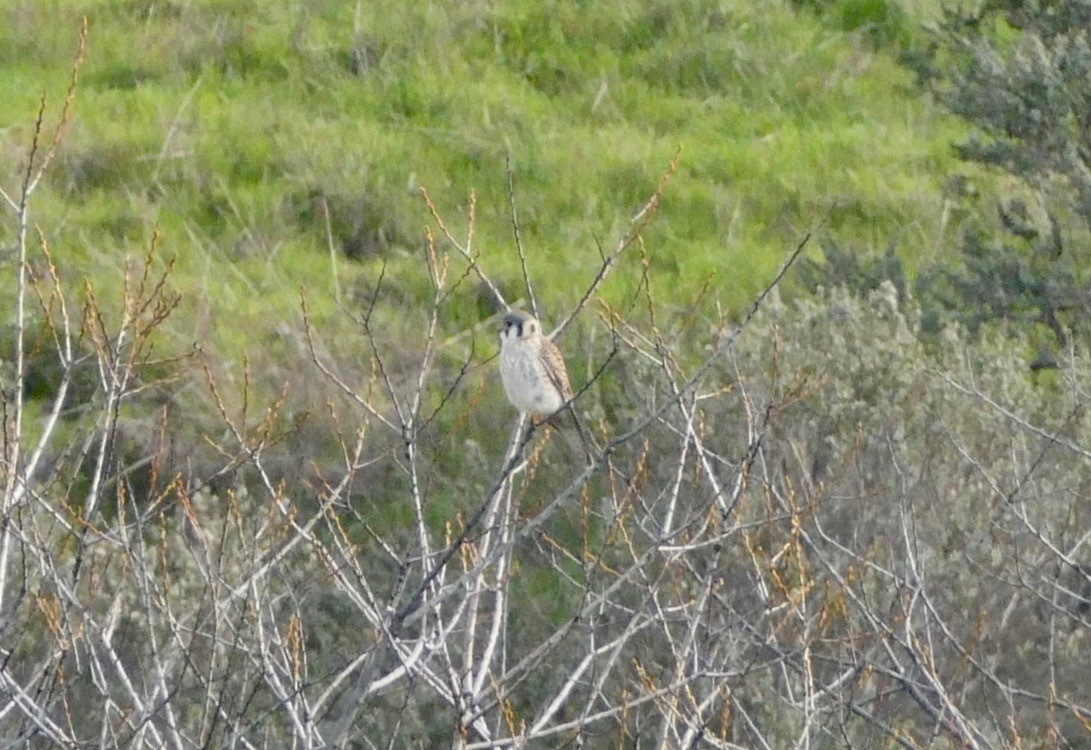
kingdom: Animalia
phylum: Chordata
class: Aves
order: Falconiformes
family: Falconidae
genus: Falco
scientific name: Falco sparverius
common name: American kestrel
